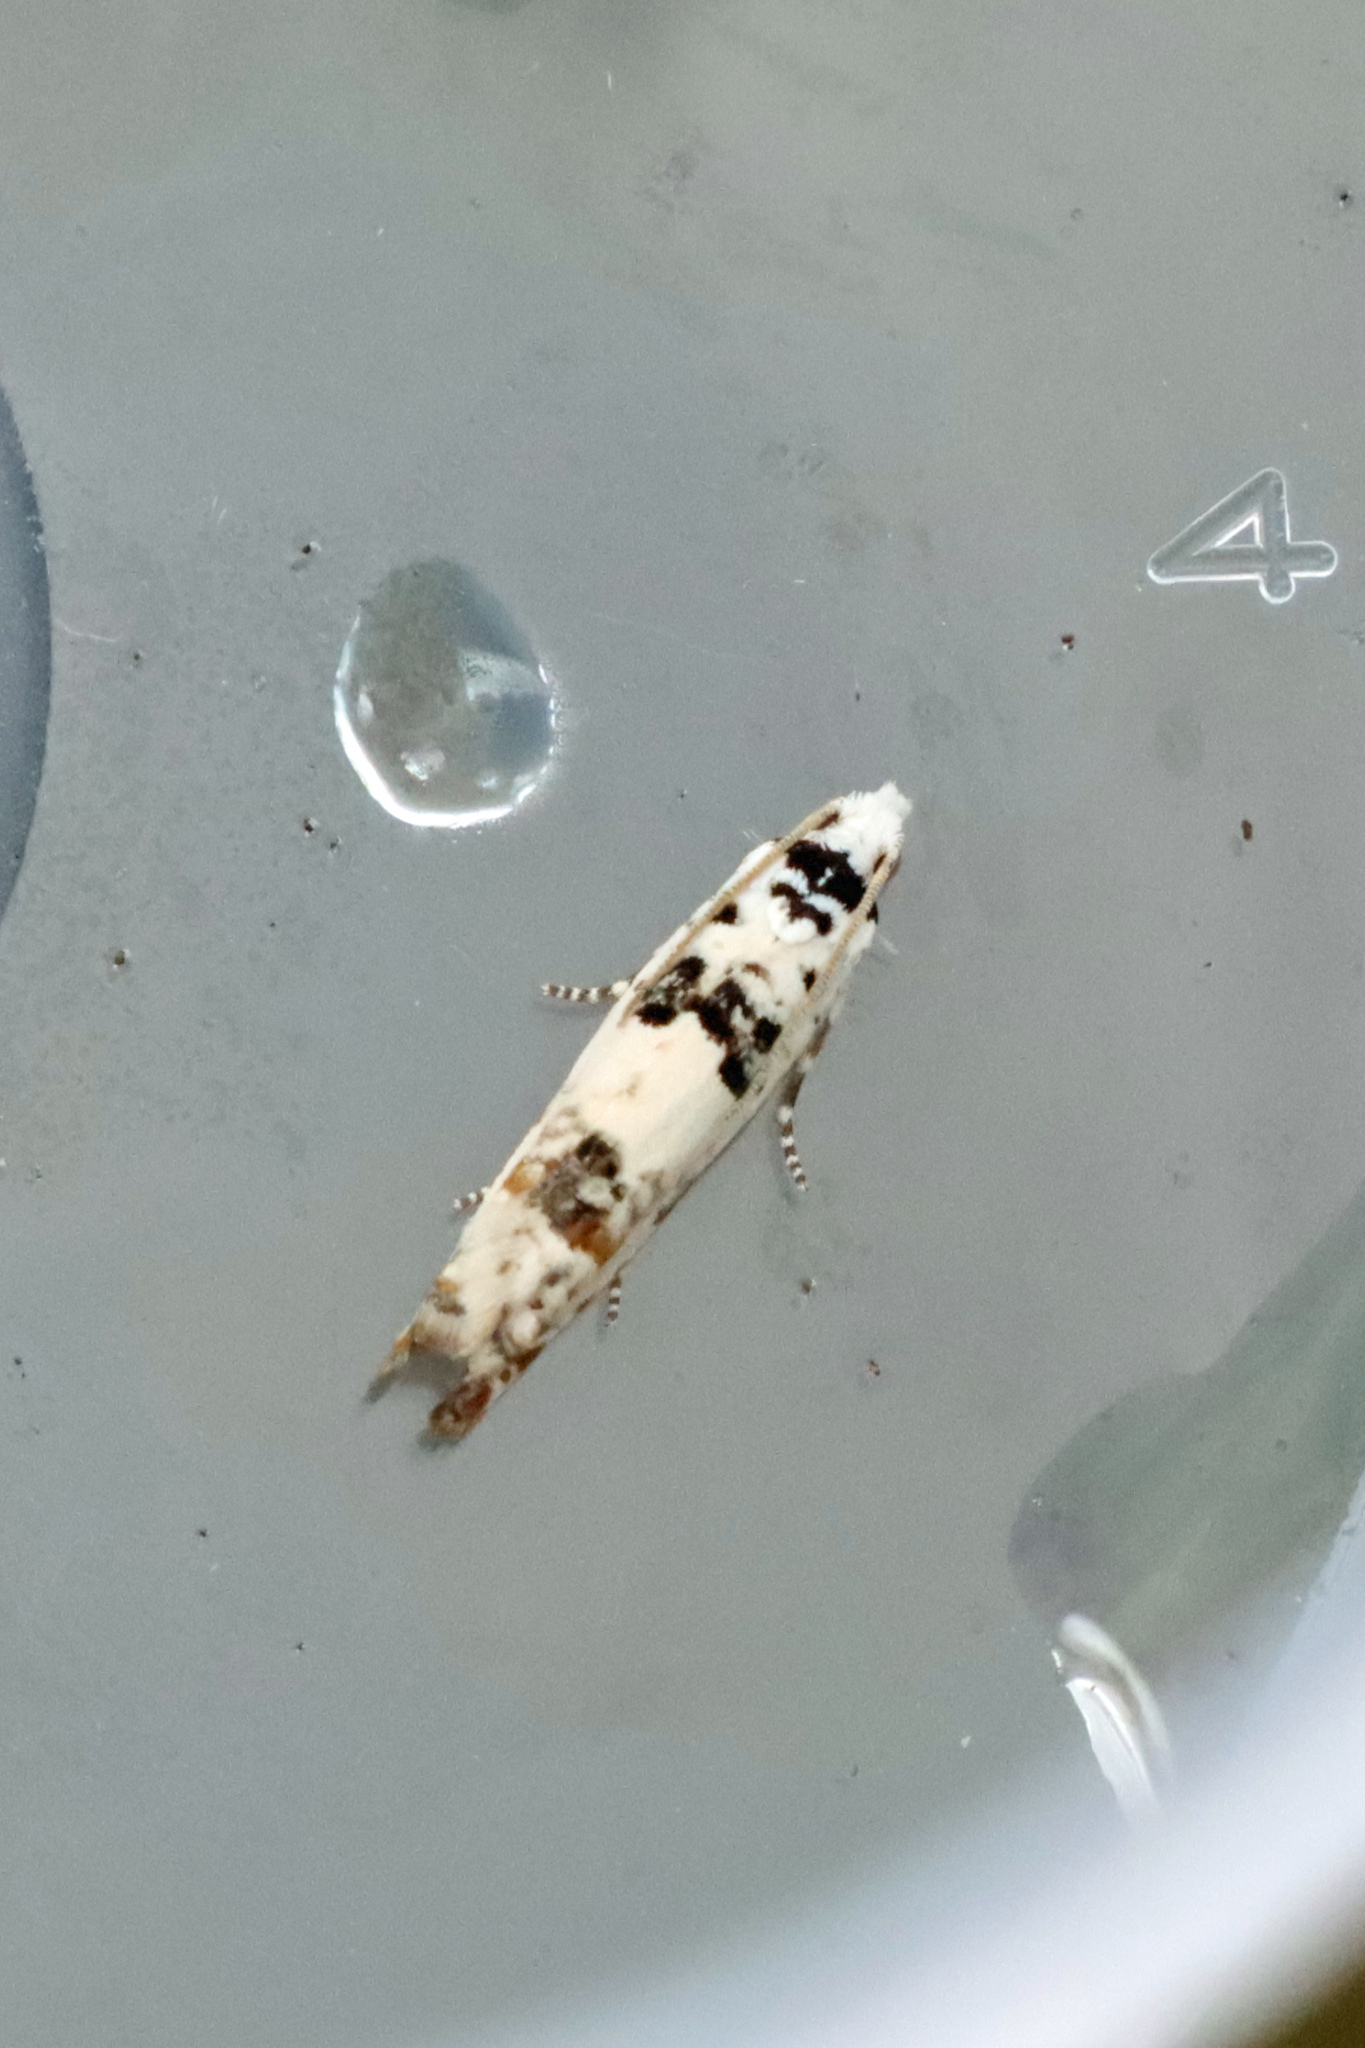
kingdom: Animalia
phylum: Arthropoda
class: Insecta
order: Lepidoptera
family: Tortricidae
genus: Eucosma
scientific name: Eucosma campoliliana
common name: Marbled bell
